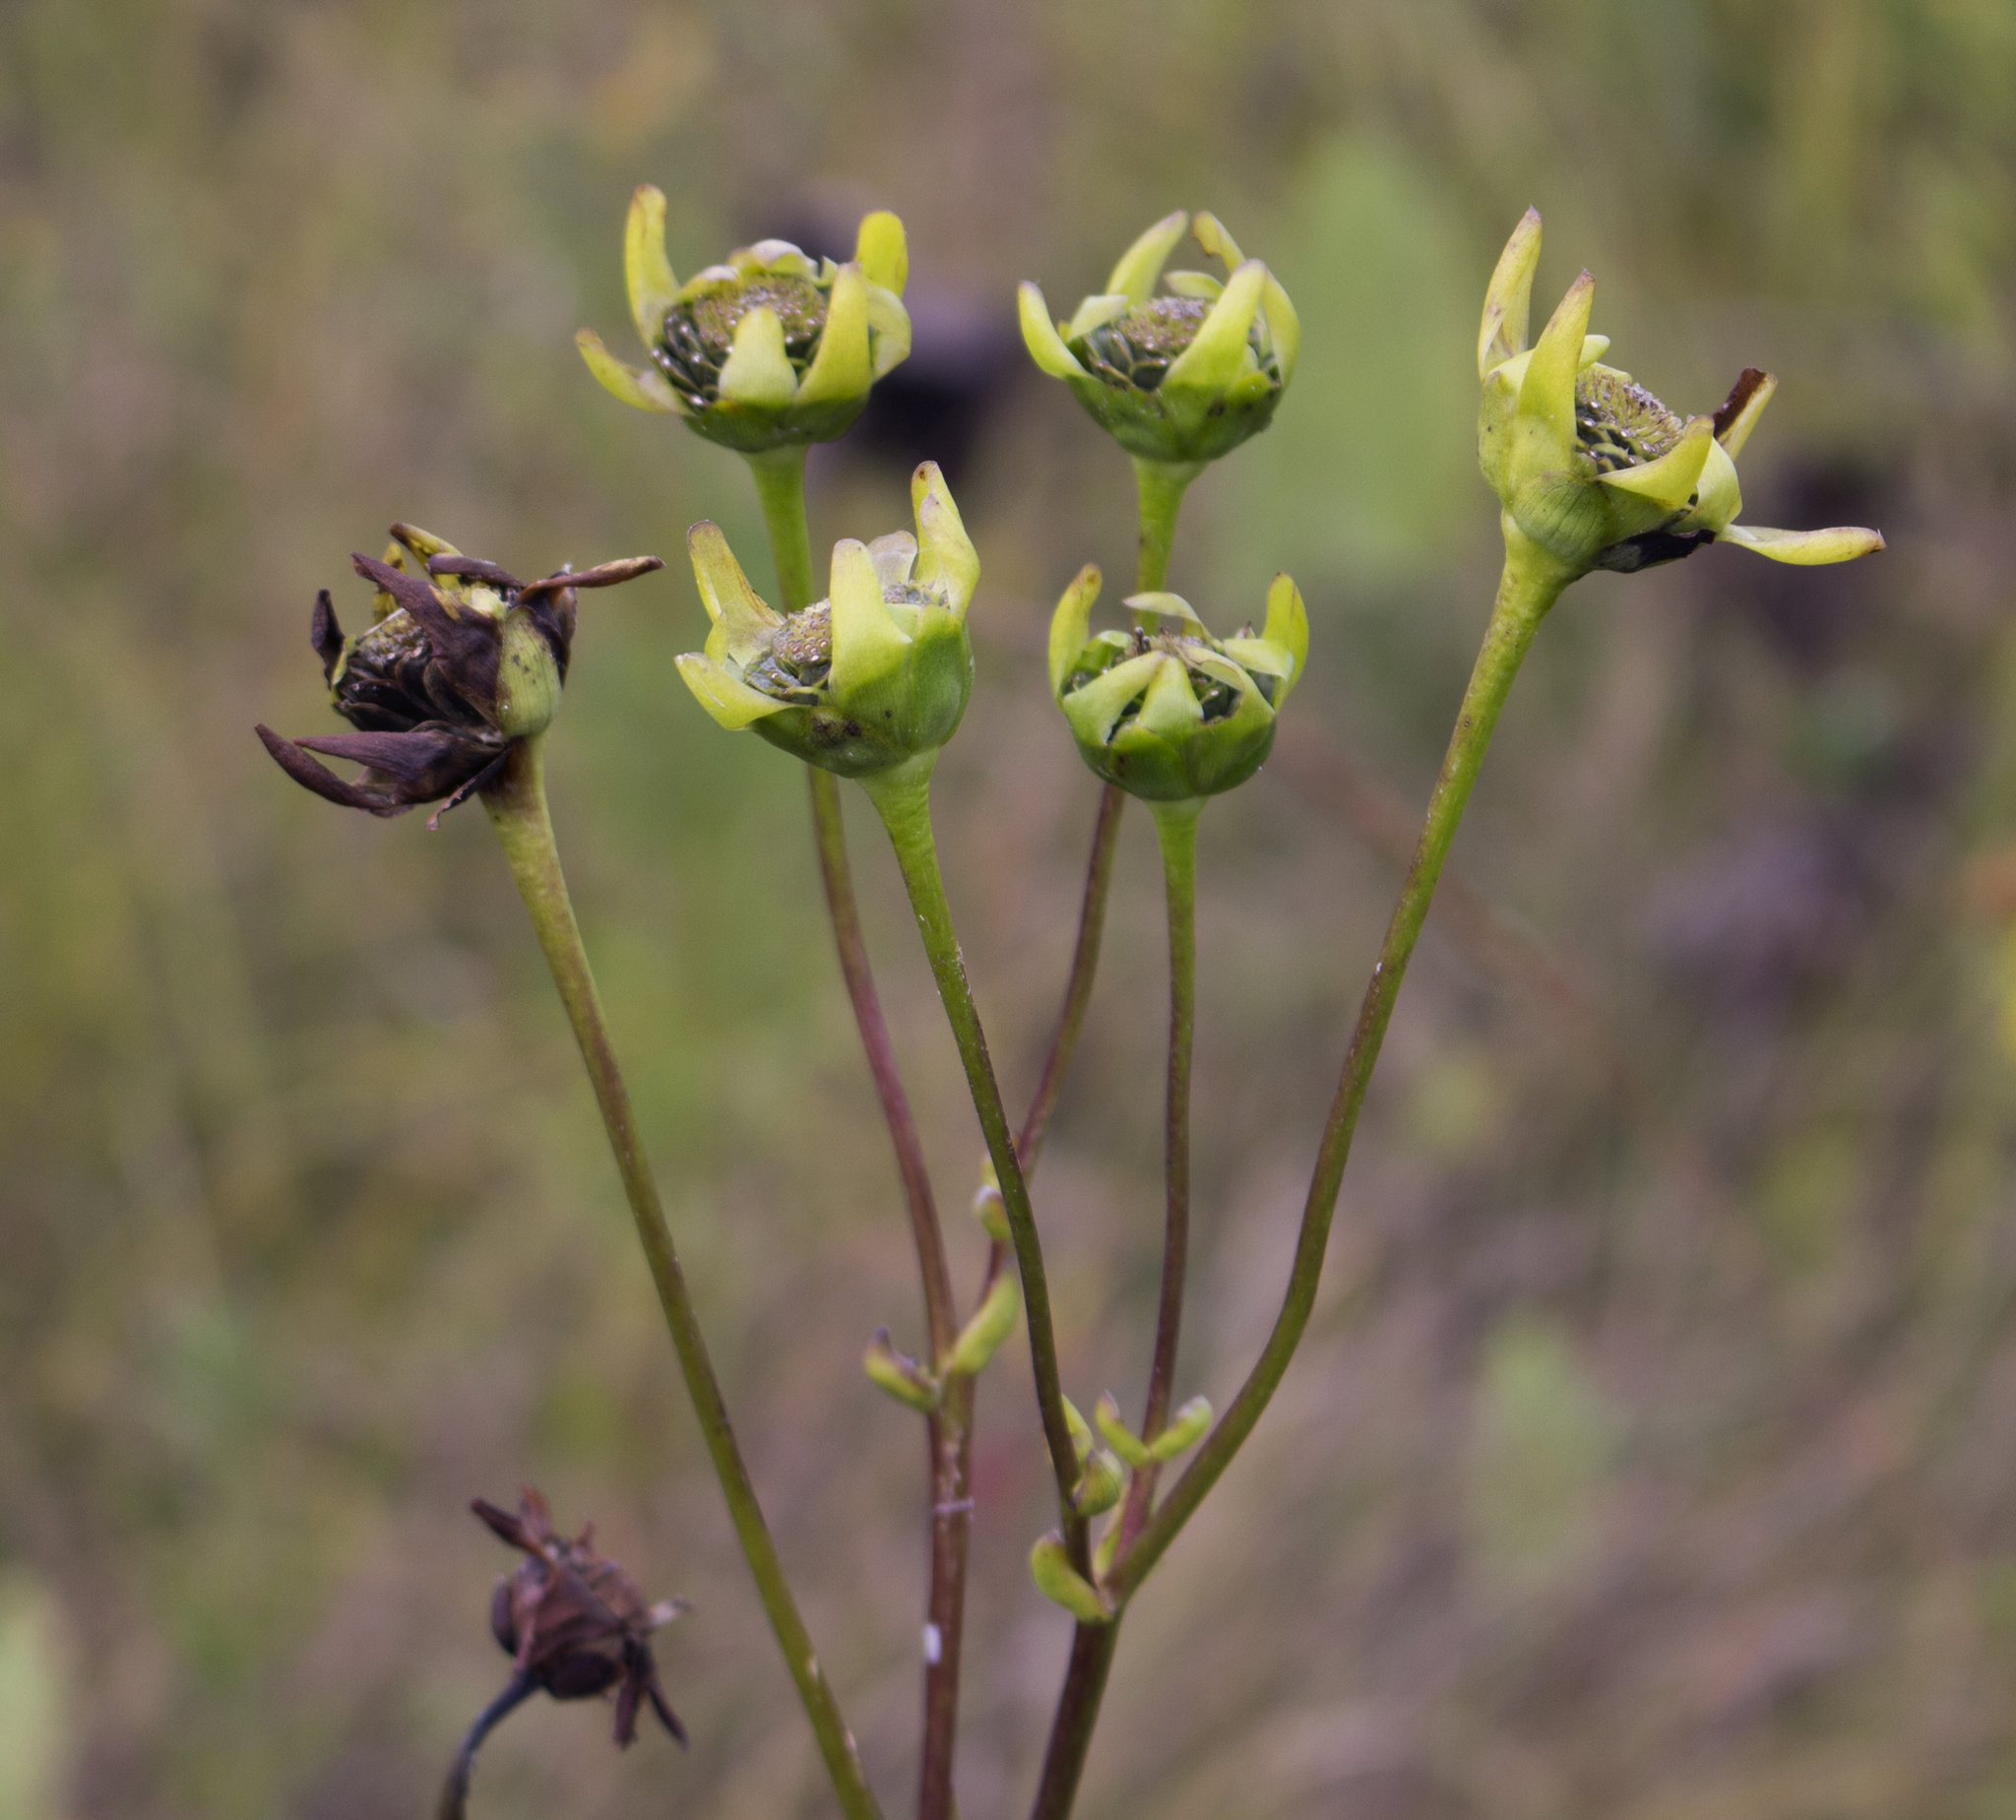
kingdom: Plantae
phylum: Tracheophyta
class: Magnoliopsida
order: Asterales
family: Asteraceae
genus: Silphium
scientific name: Silphium terebinthinaceum
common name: Basal-leaf rosinweed
